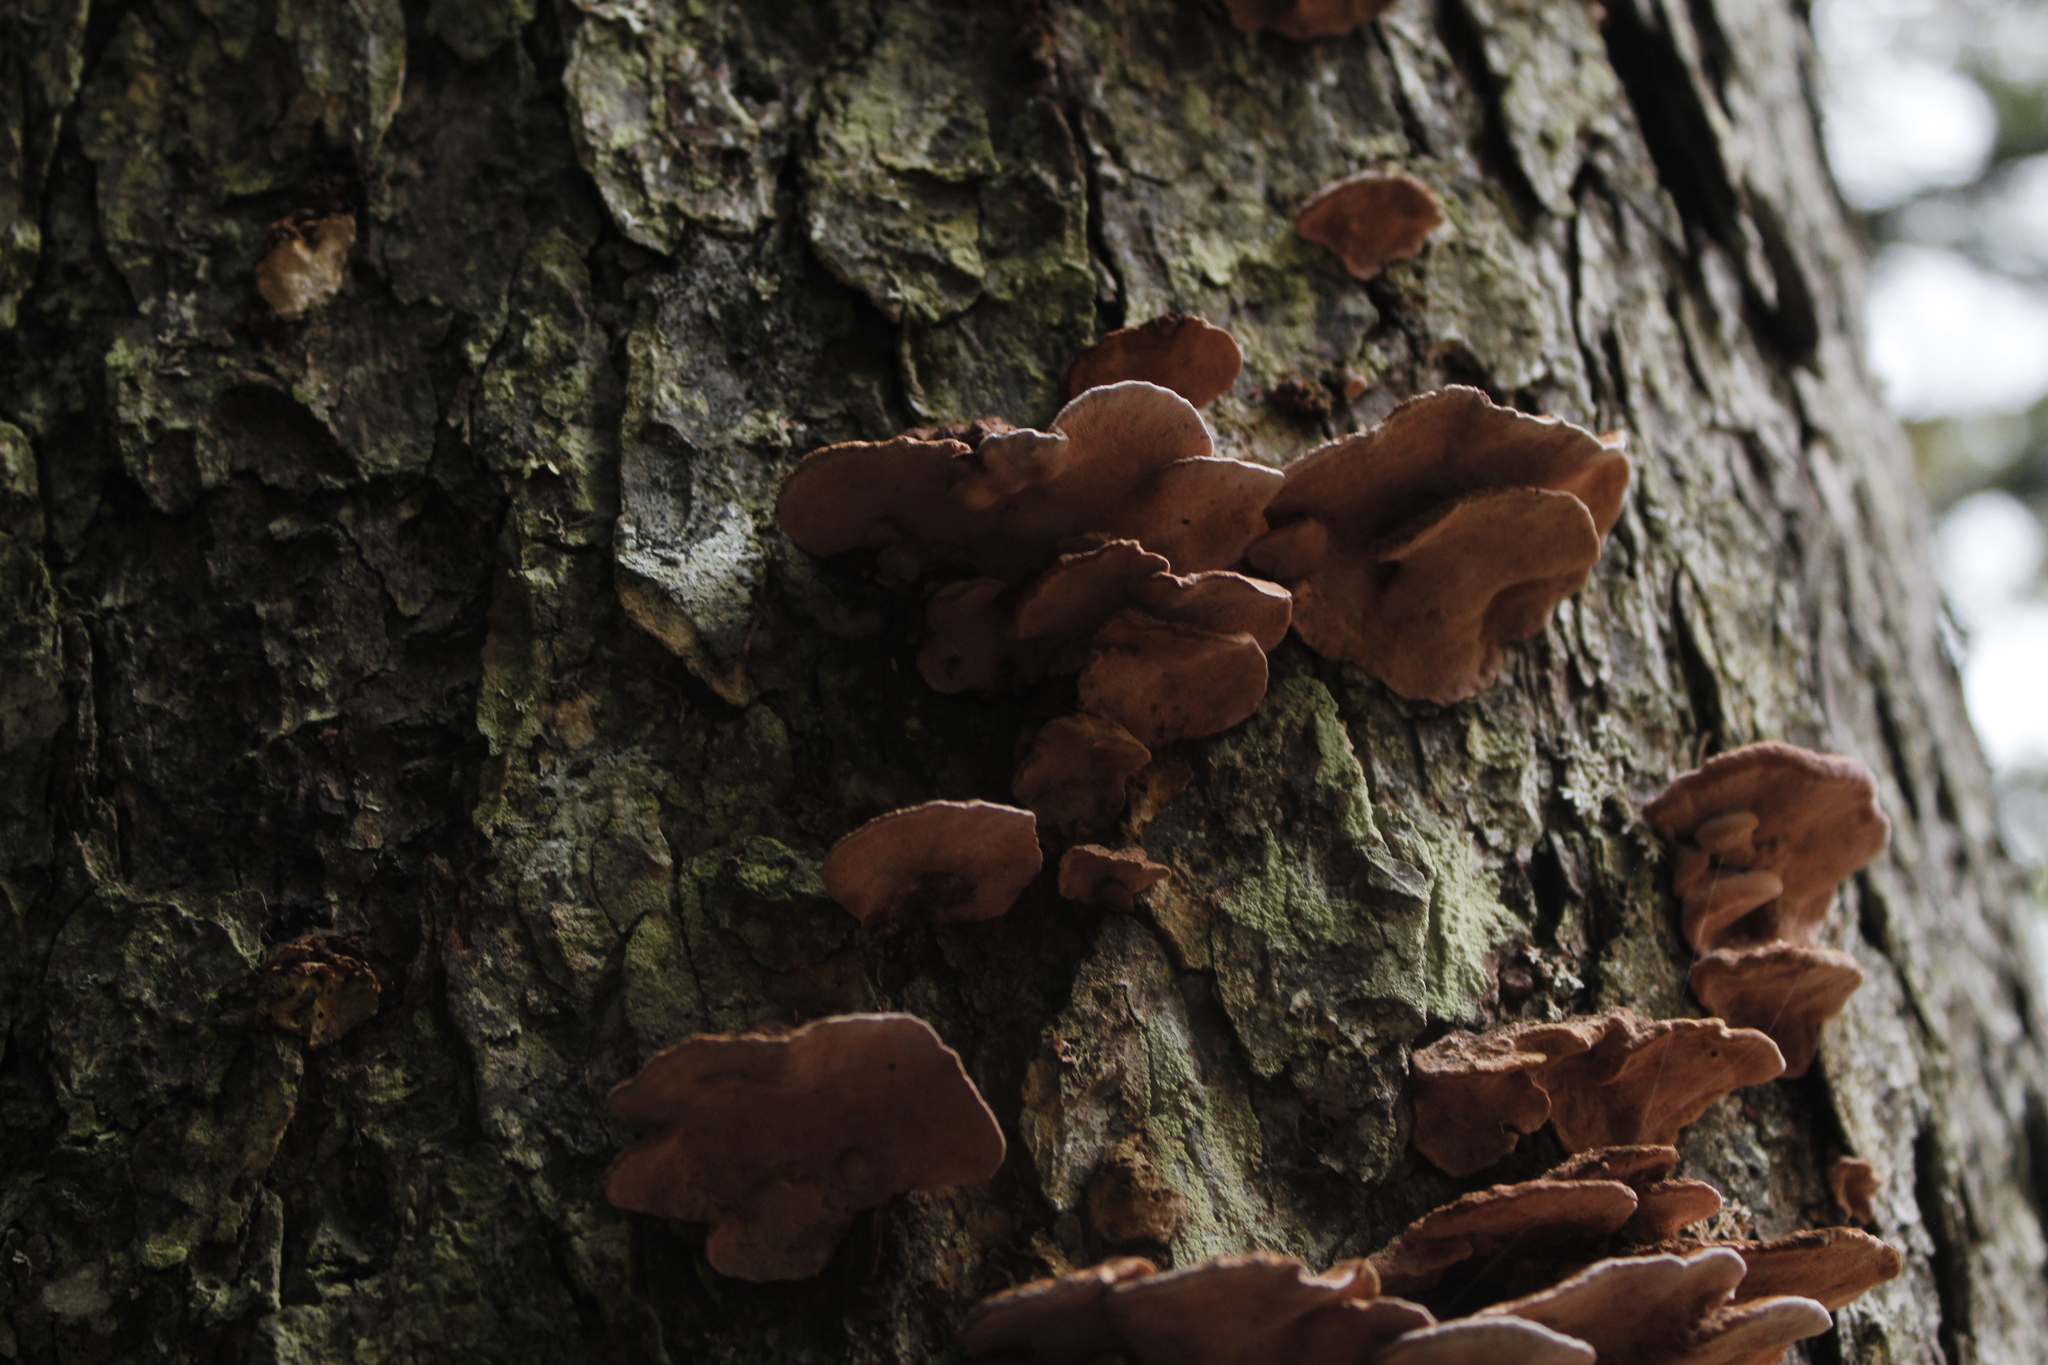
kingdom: Fungi
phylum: Basidiomycota
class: Agaricomycetes
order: Polyporales
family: Fomitopsidaceae
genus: Rhodofomes
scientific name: Rhodofomes cajanderi
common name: Rosy conk
